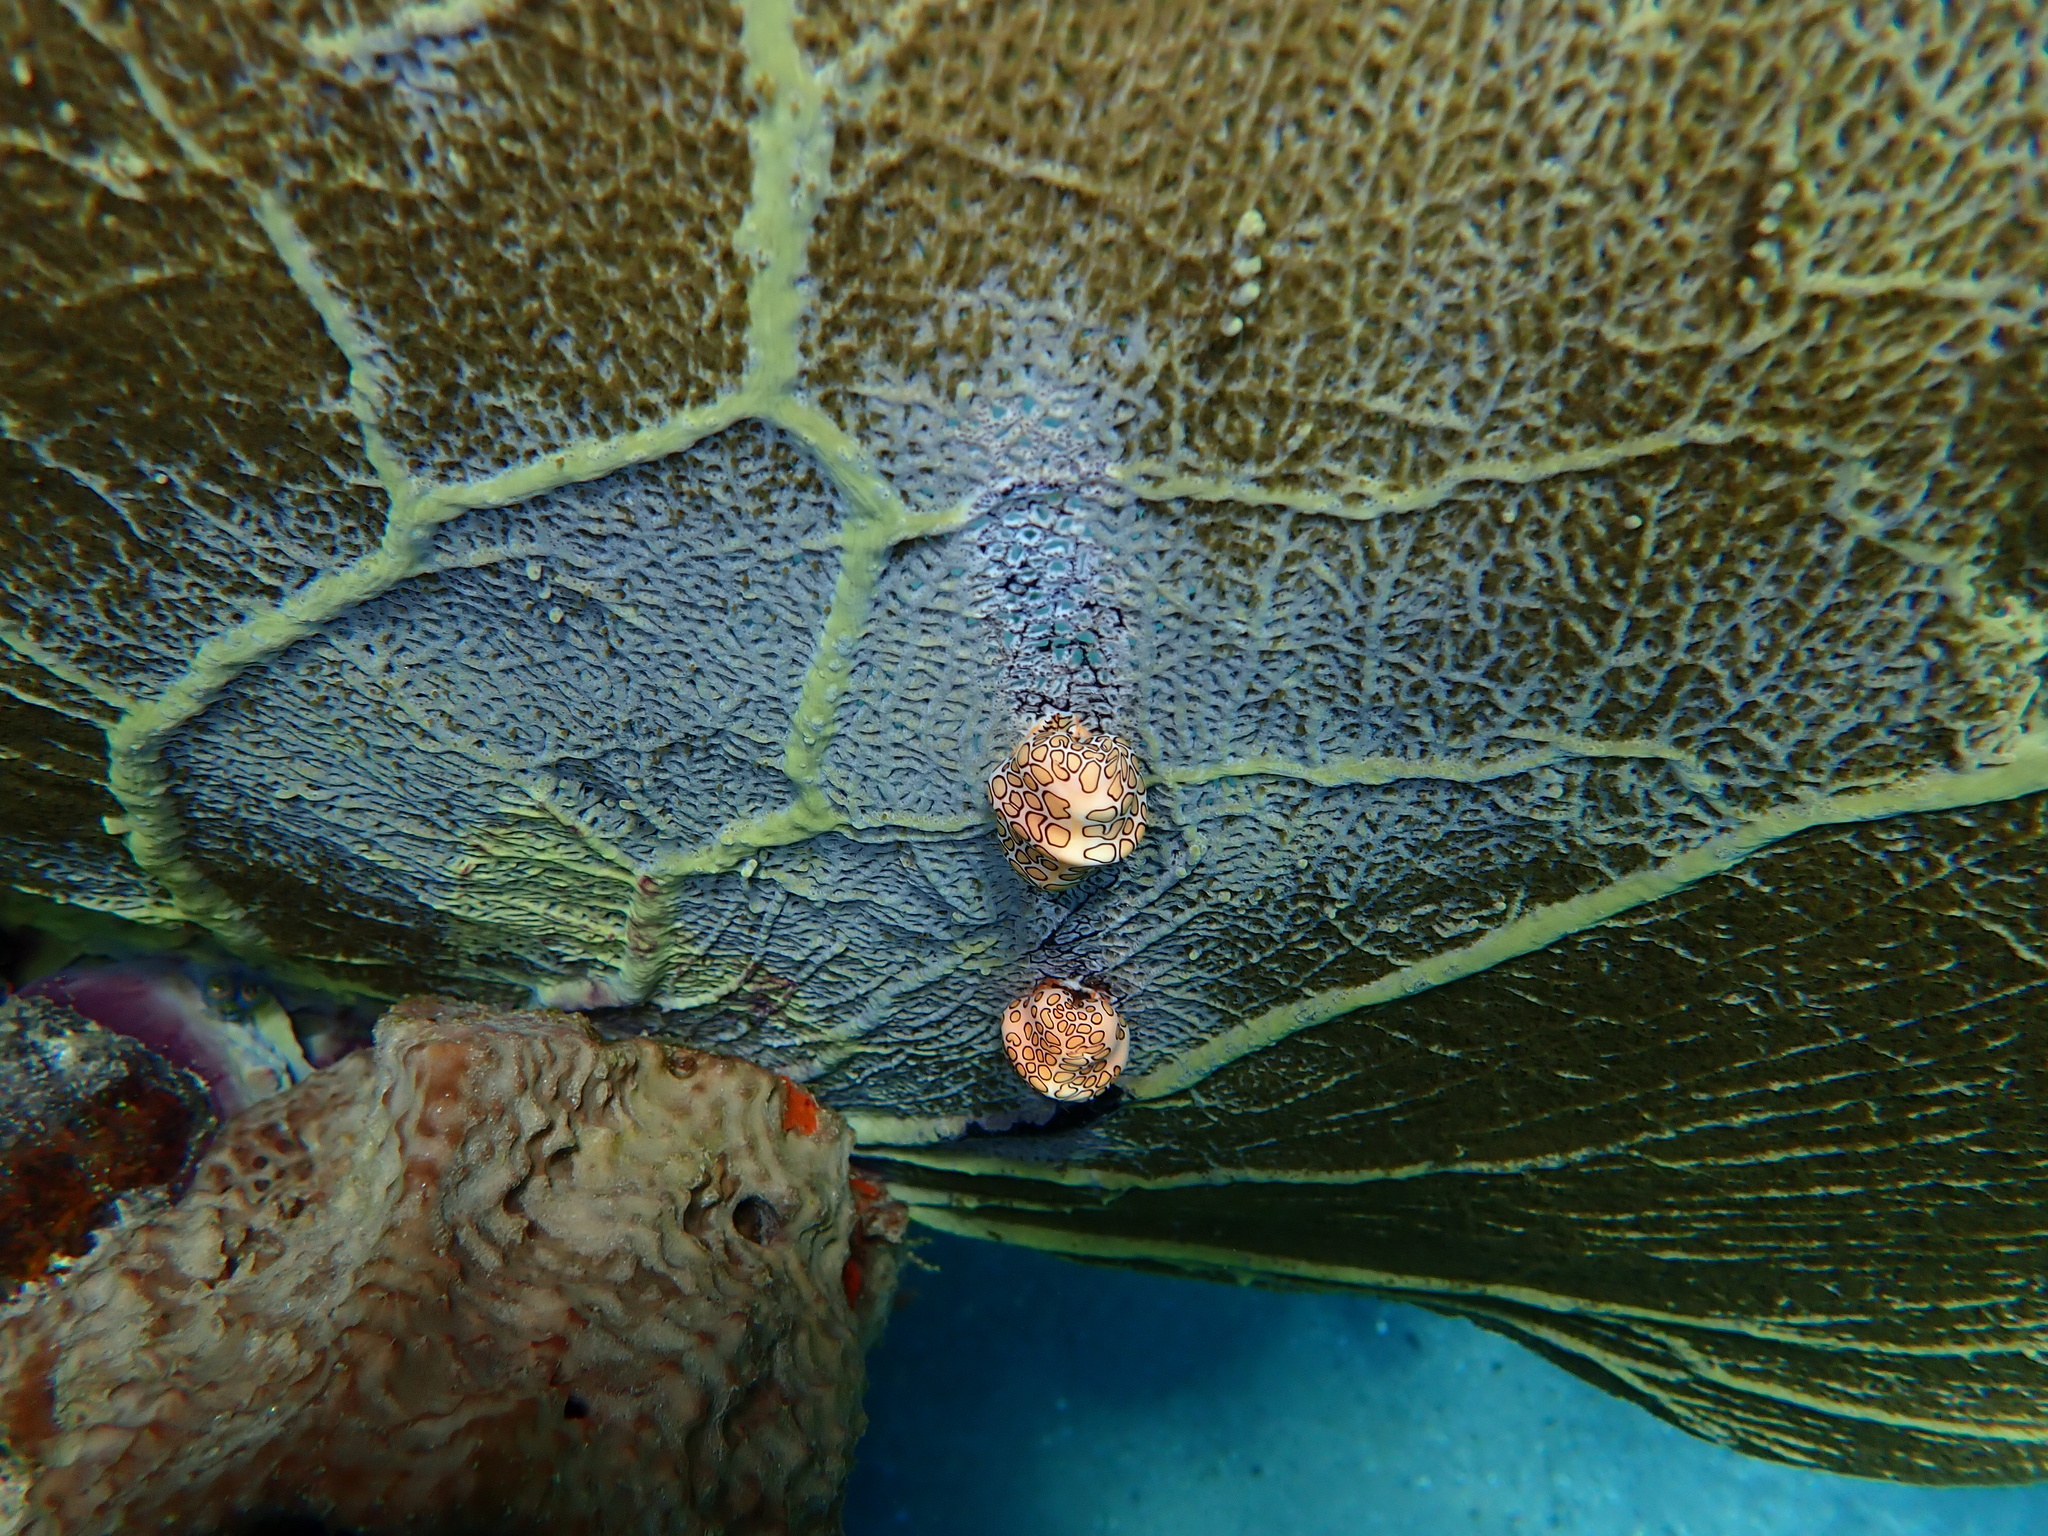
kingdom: Animalia
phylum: Mollusca
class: Gastropoda
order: Littorinimorpha
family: Ovulidae
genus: Cyphoma
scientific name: Cyphoma gibbosum
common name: Flamingo tongue
